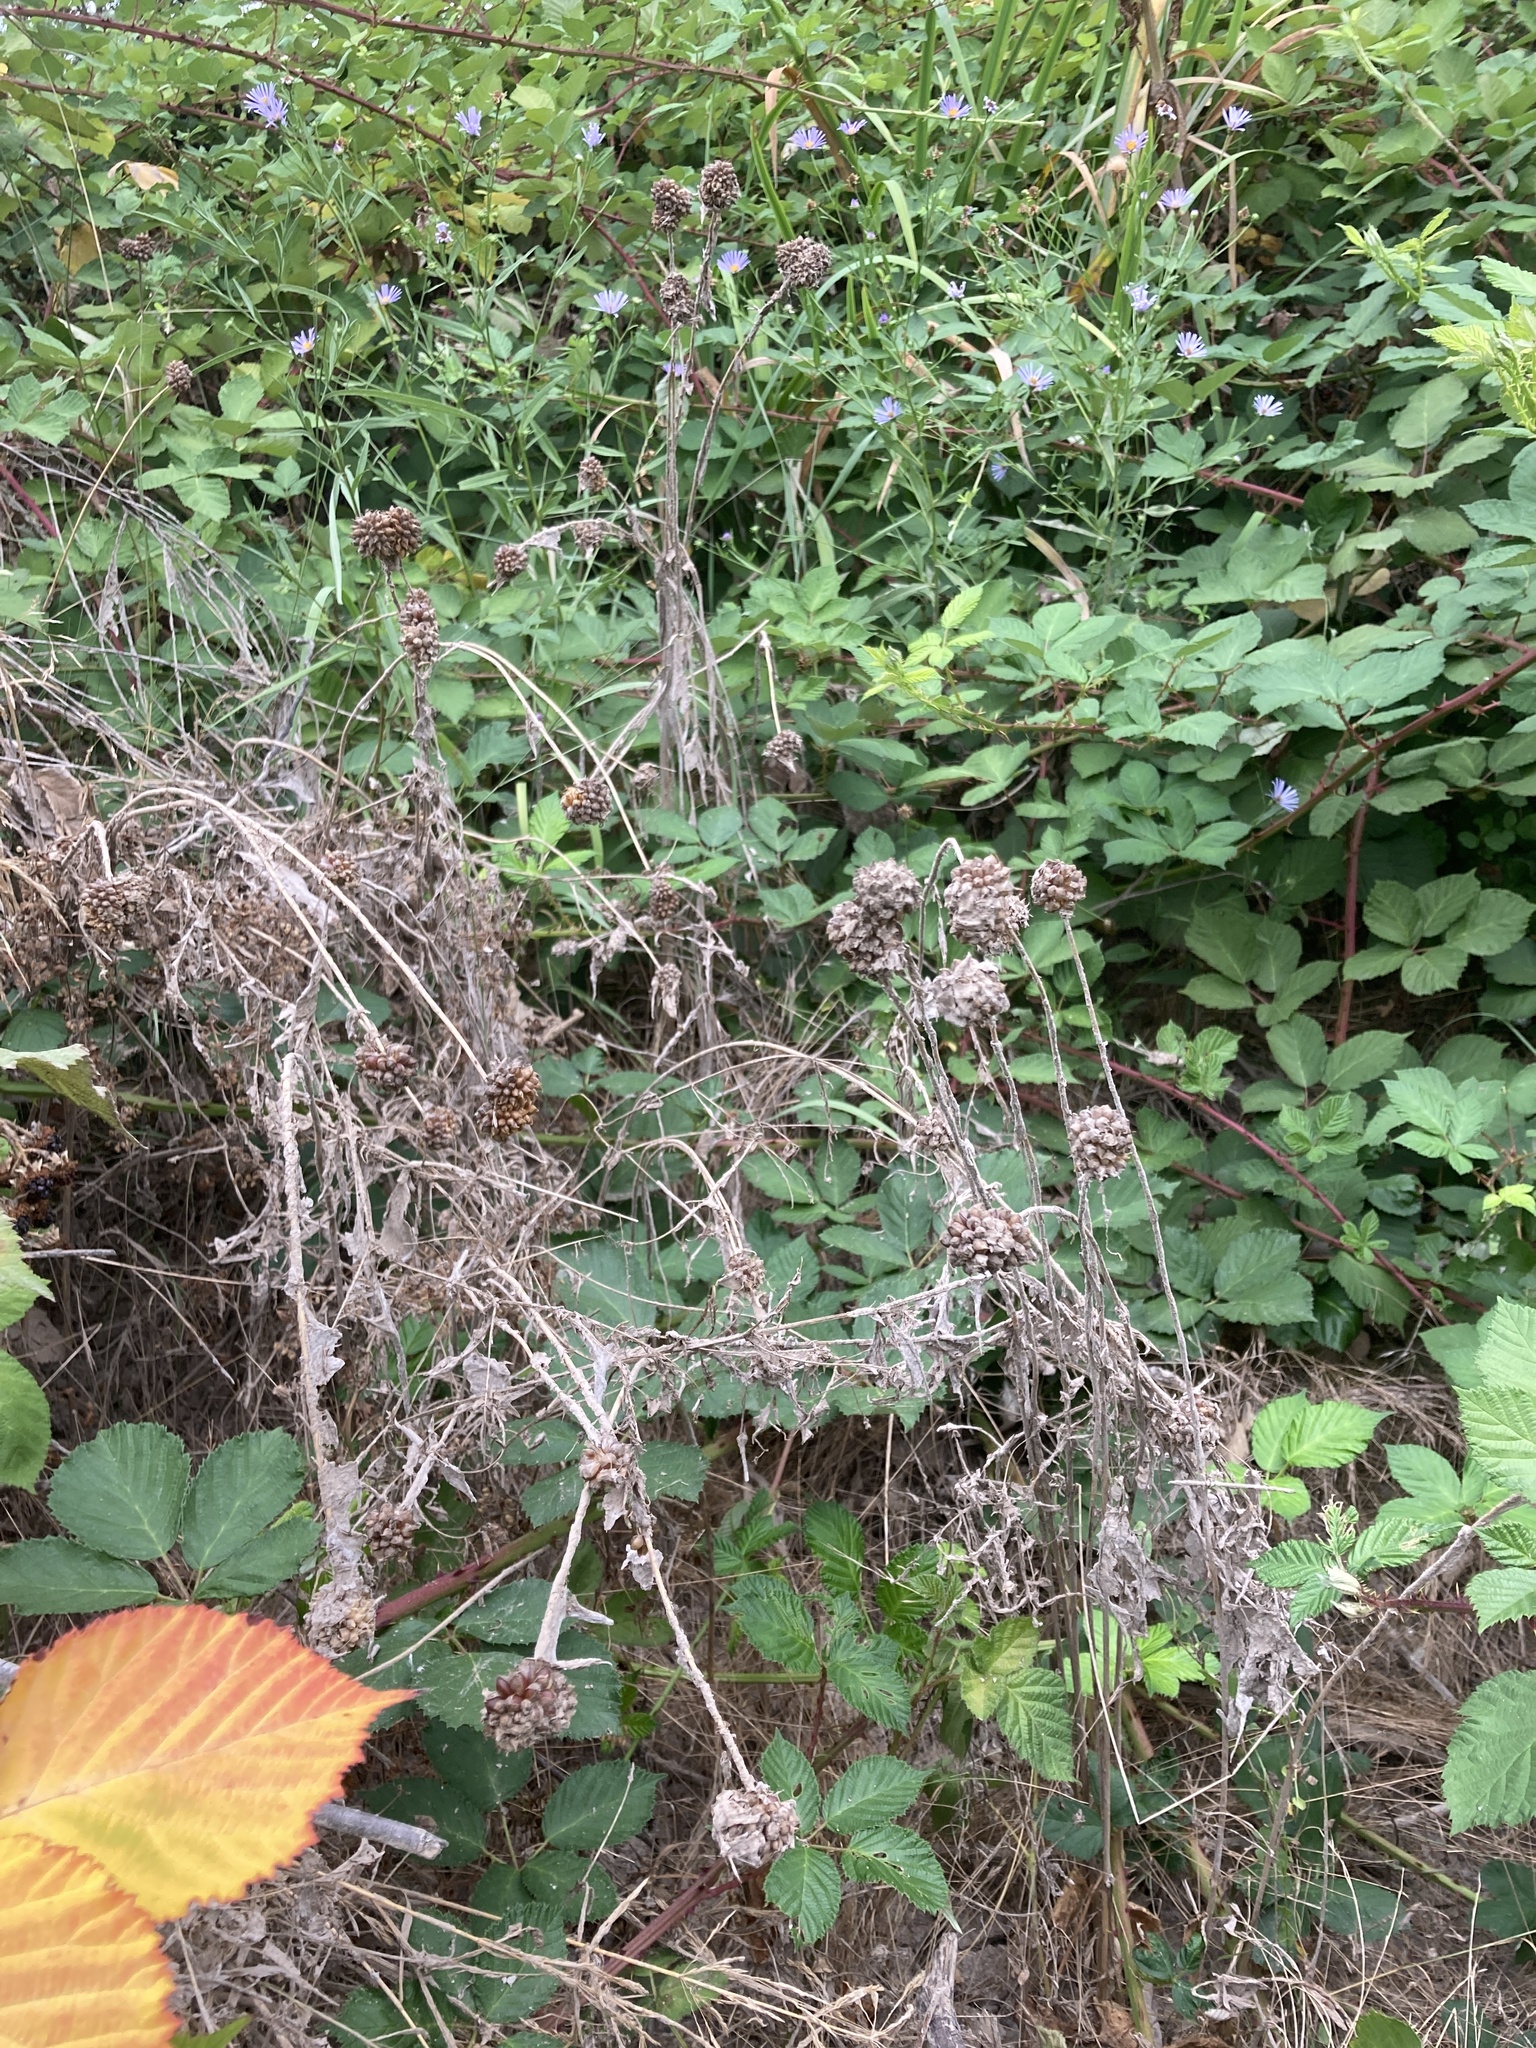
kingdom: Plantae
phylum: Tracheophyta
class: Liliopsida
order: Asparagales
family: Amaryllidaceae
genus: Allium
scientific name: Allium vineale
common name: Crow garlic
